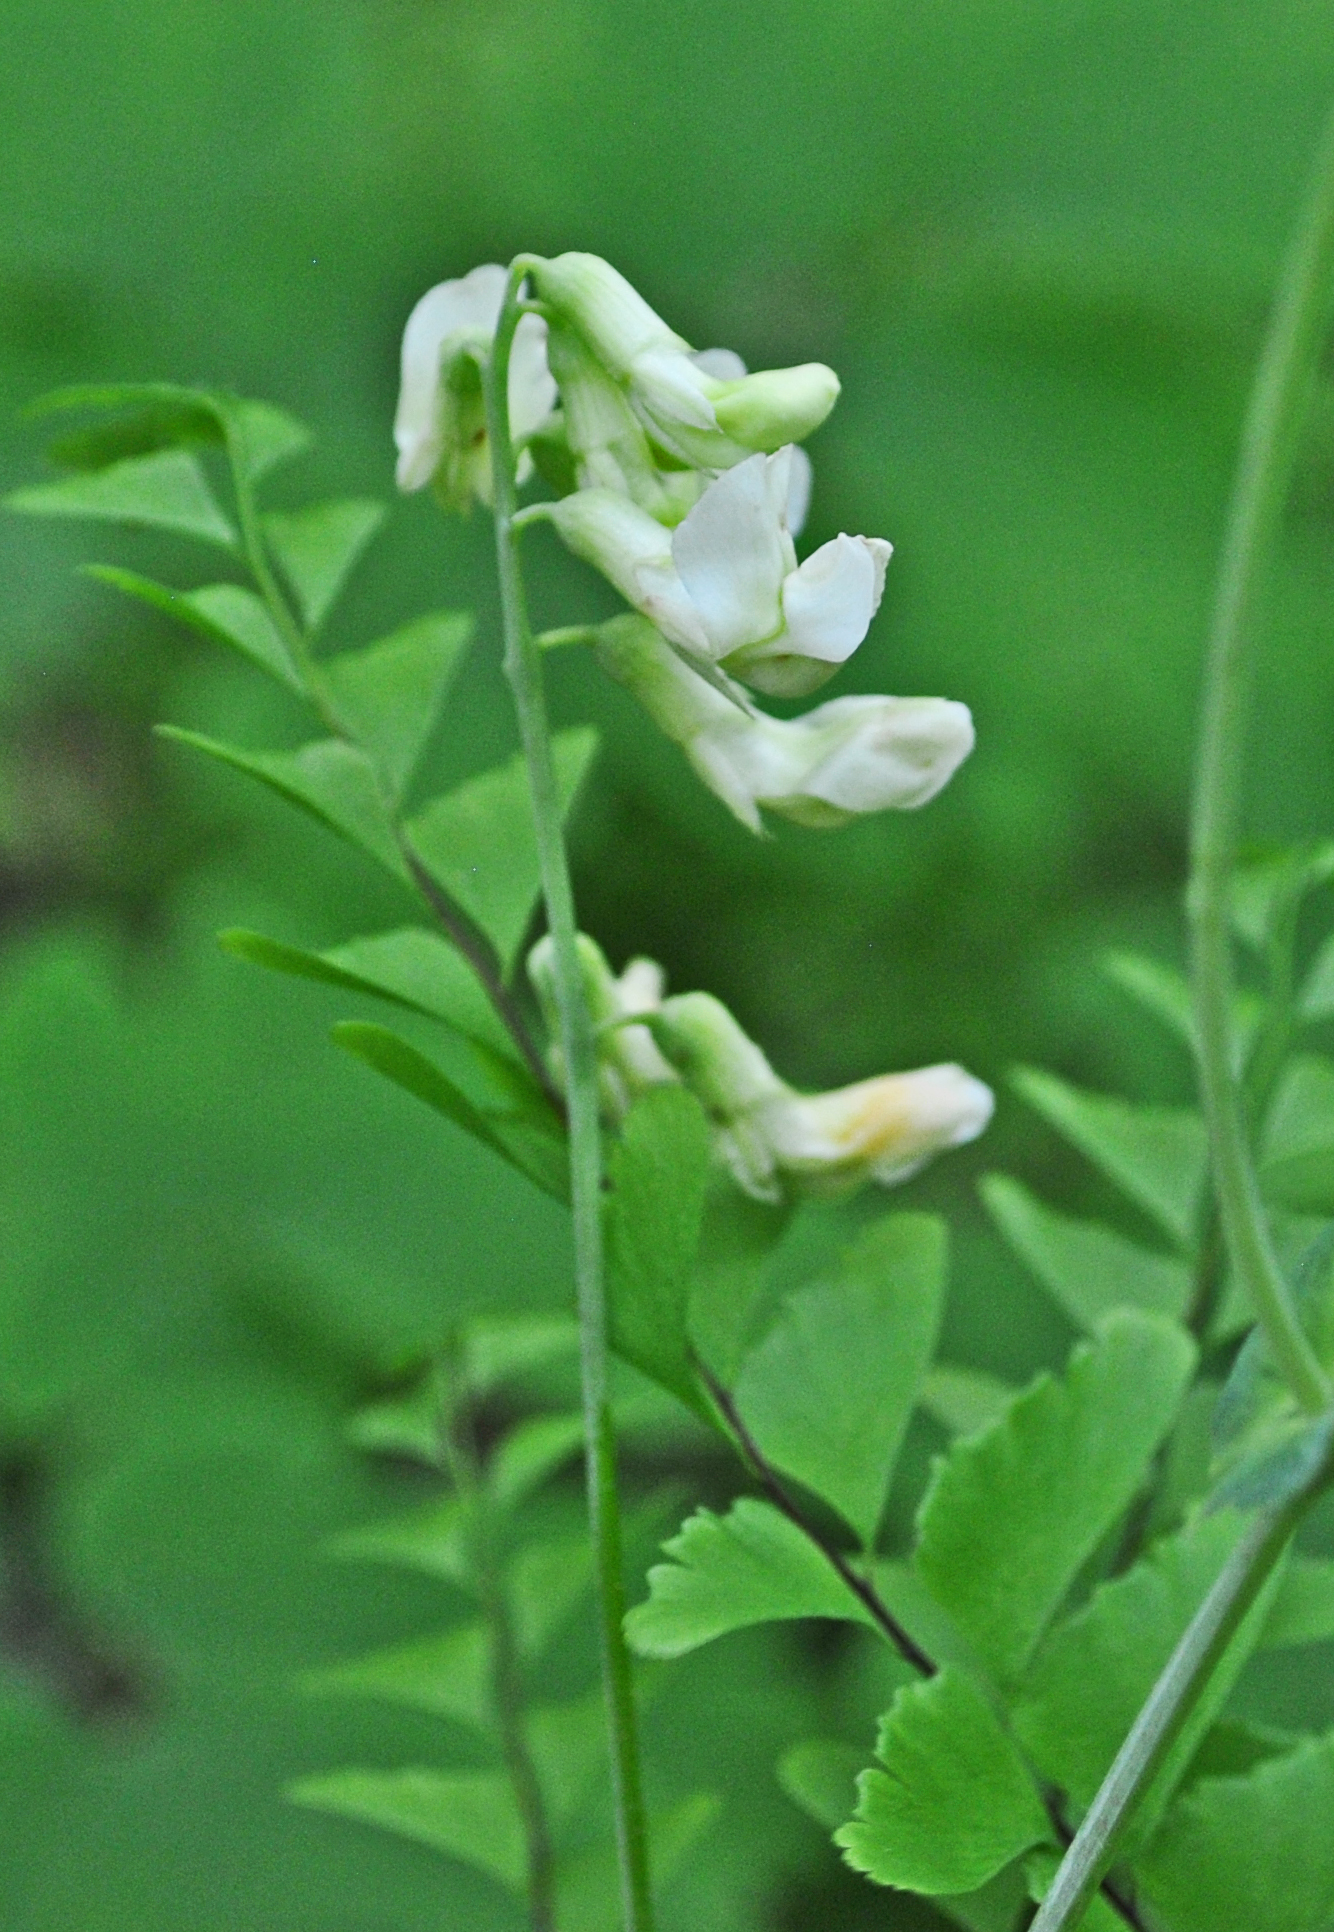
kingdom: Plantae
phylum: Tracheophyta
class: Magnoliopsida
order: Fabales
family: Fabaceae
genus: Lathyrus
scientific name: Lathyrus ochroleucus
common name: Pale vetchling
